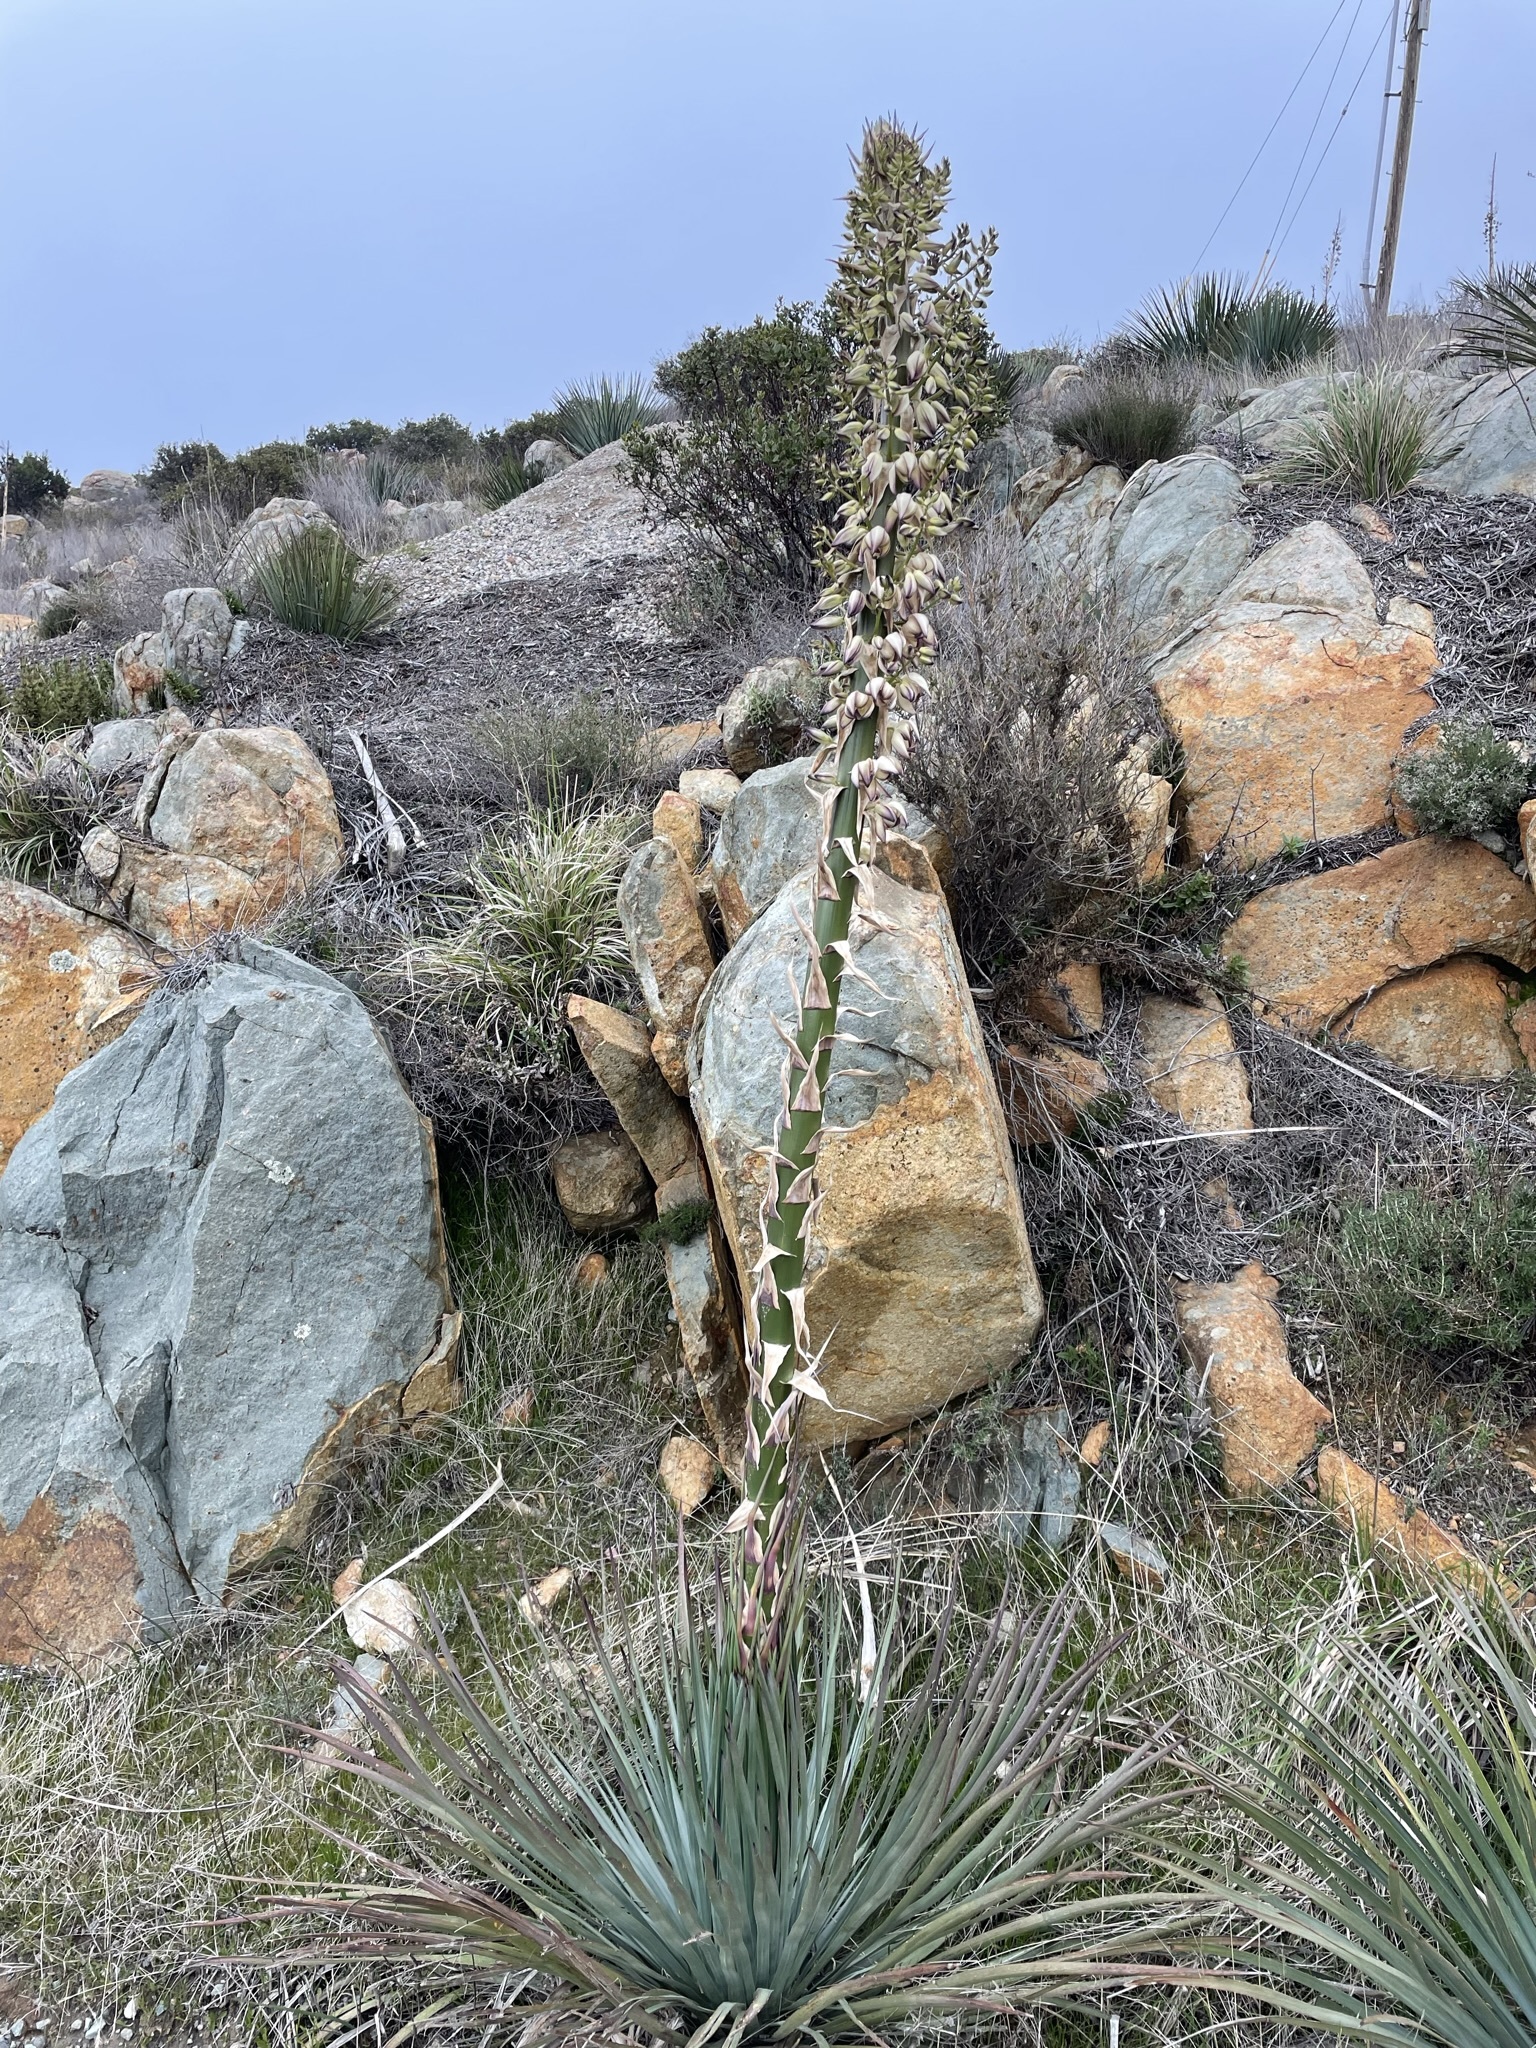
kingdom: Plantae
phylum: Tracheophyta
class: Liliopsida
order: Asparagales
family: Asparagaceae
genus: Hesperoyucca
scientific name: Hesperoyucca whipplei
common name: Our lord's-candle
